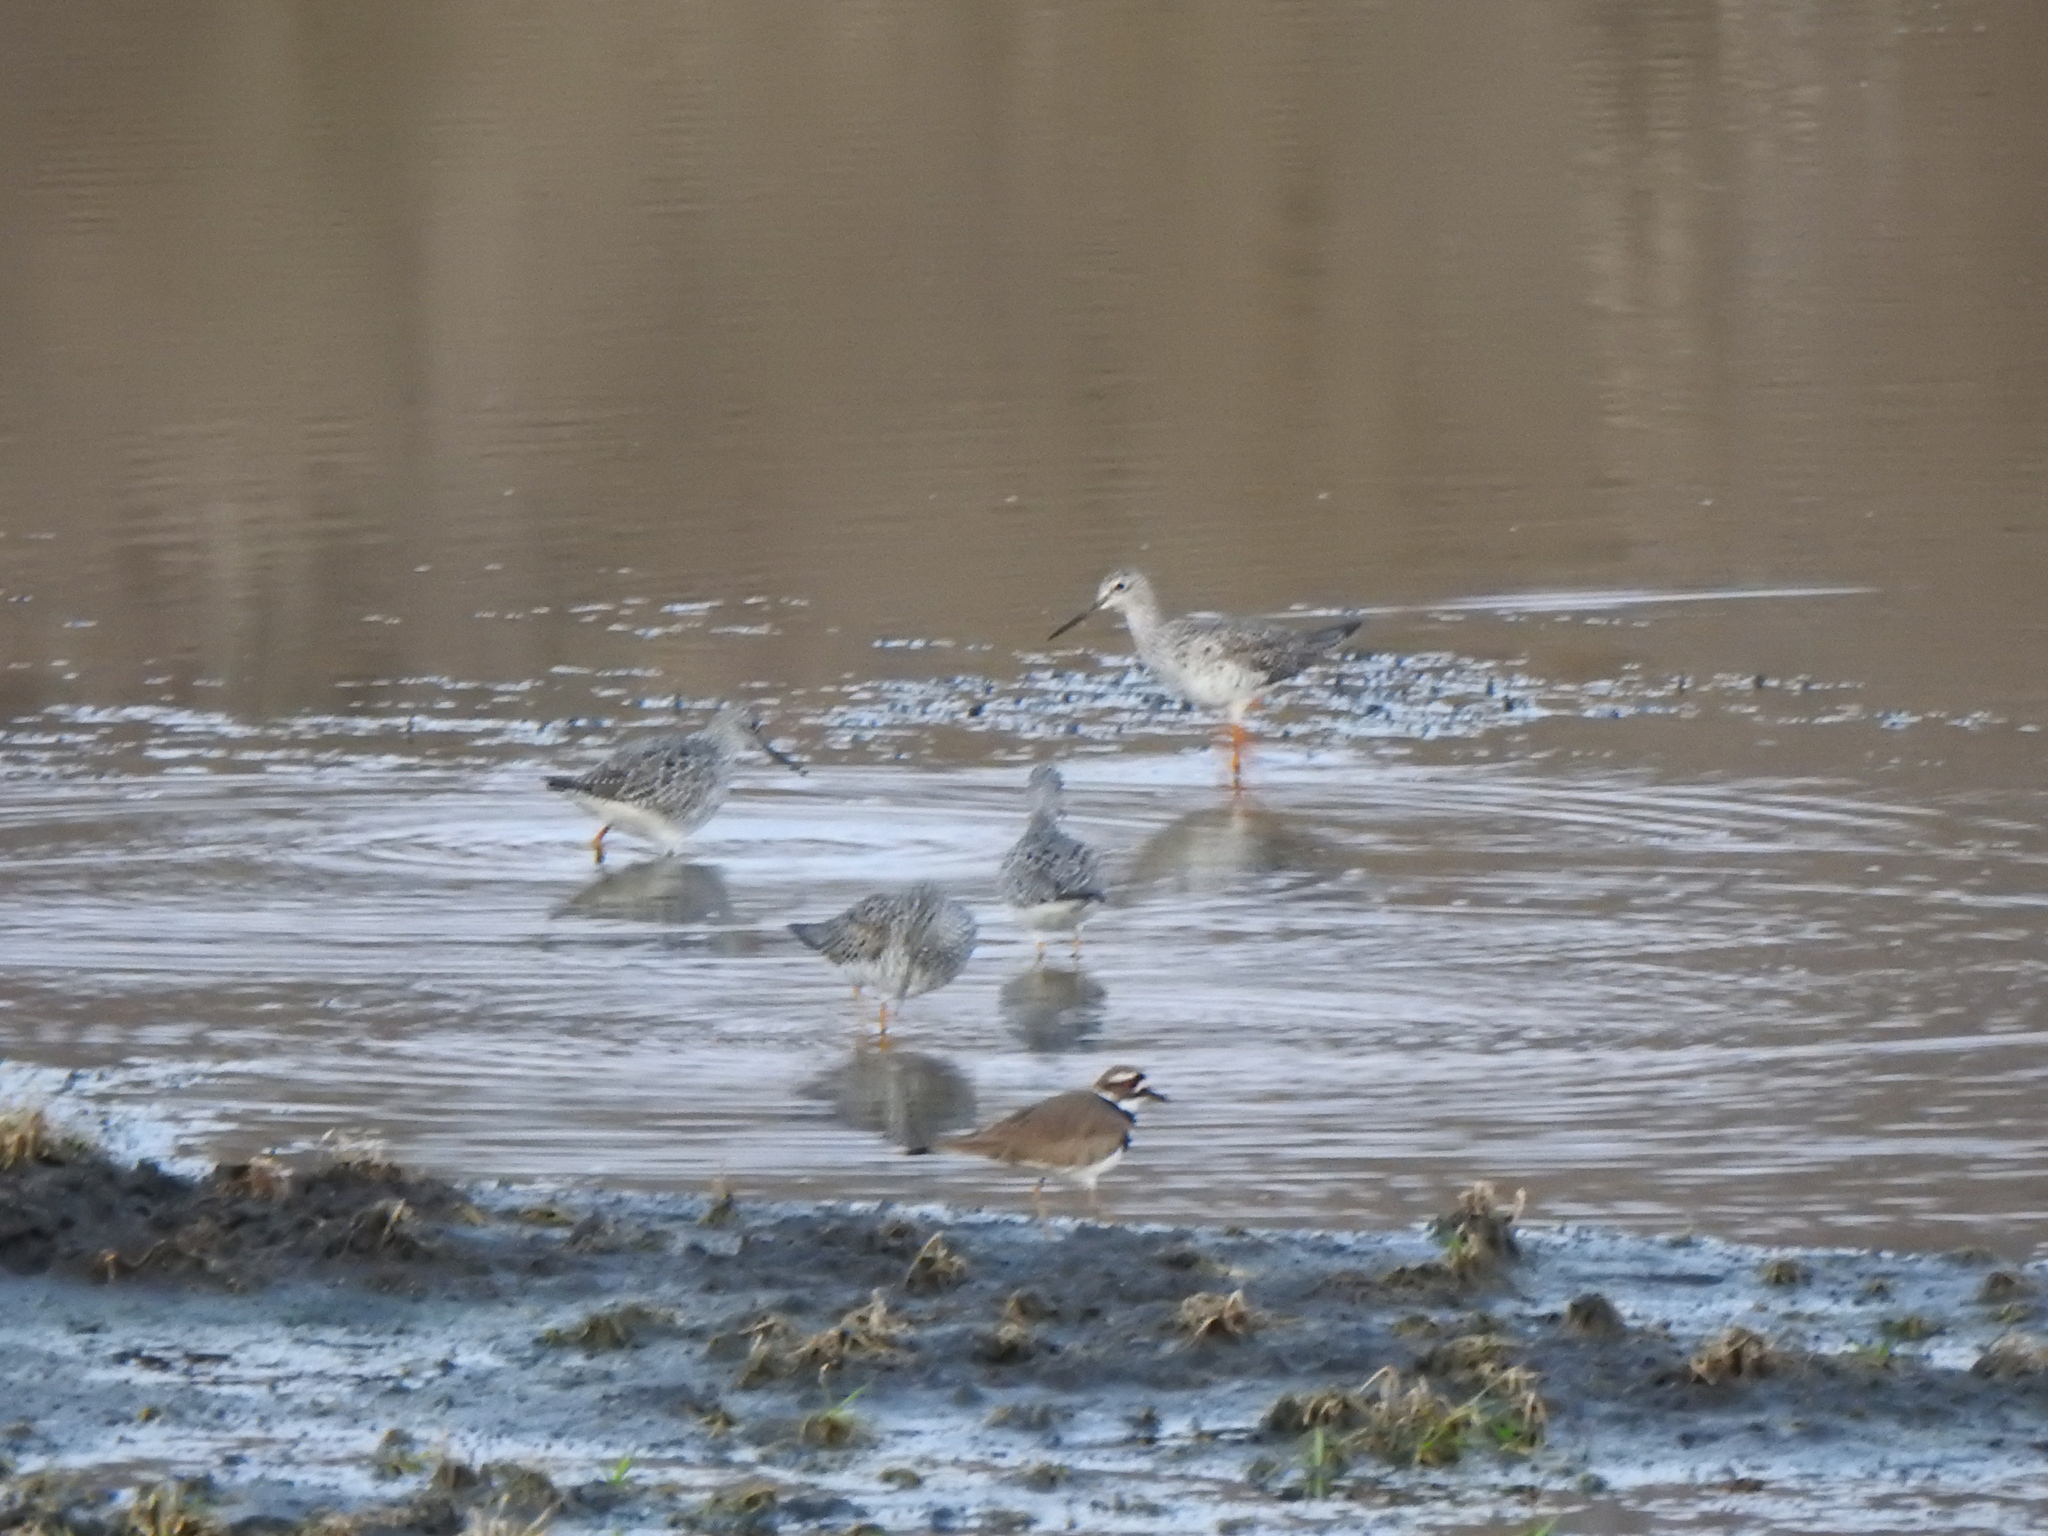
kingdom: Animalia
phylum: Chordata
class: Aves
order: Charadriiformes
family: Scolopacidae
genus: Tringa
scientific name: Tringa melanoleuca
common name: Greater yellowlegs
